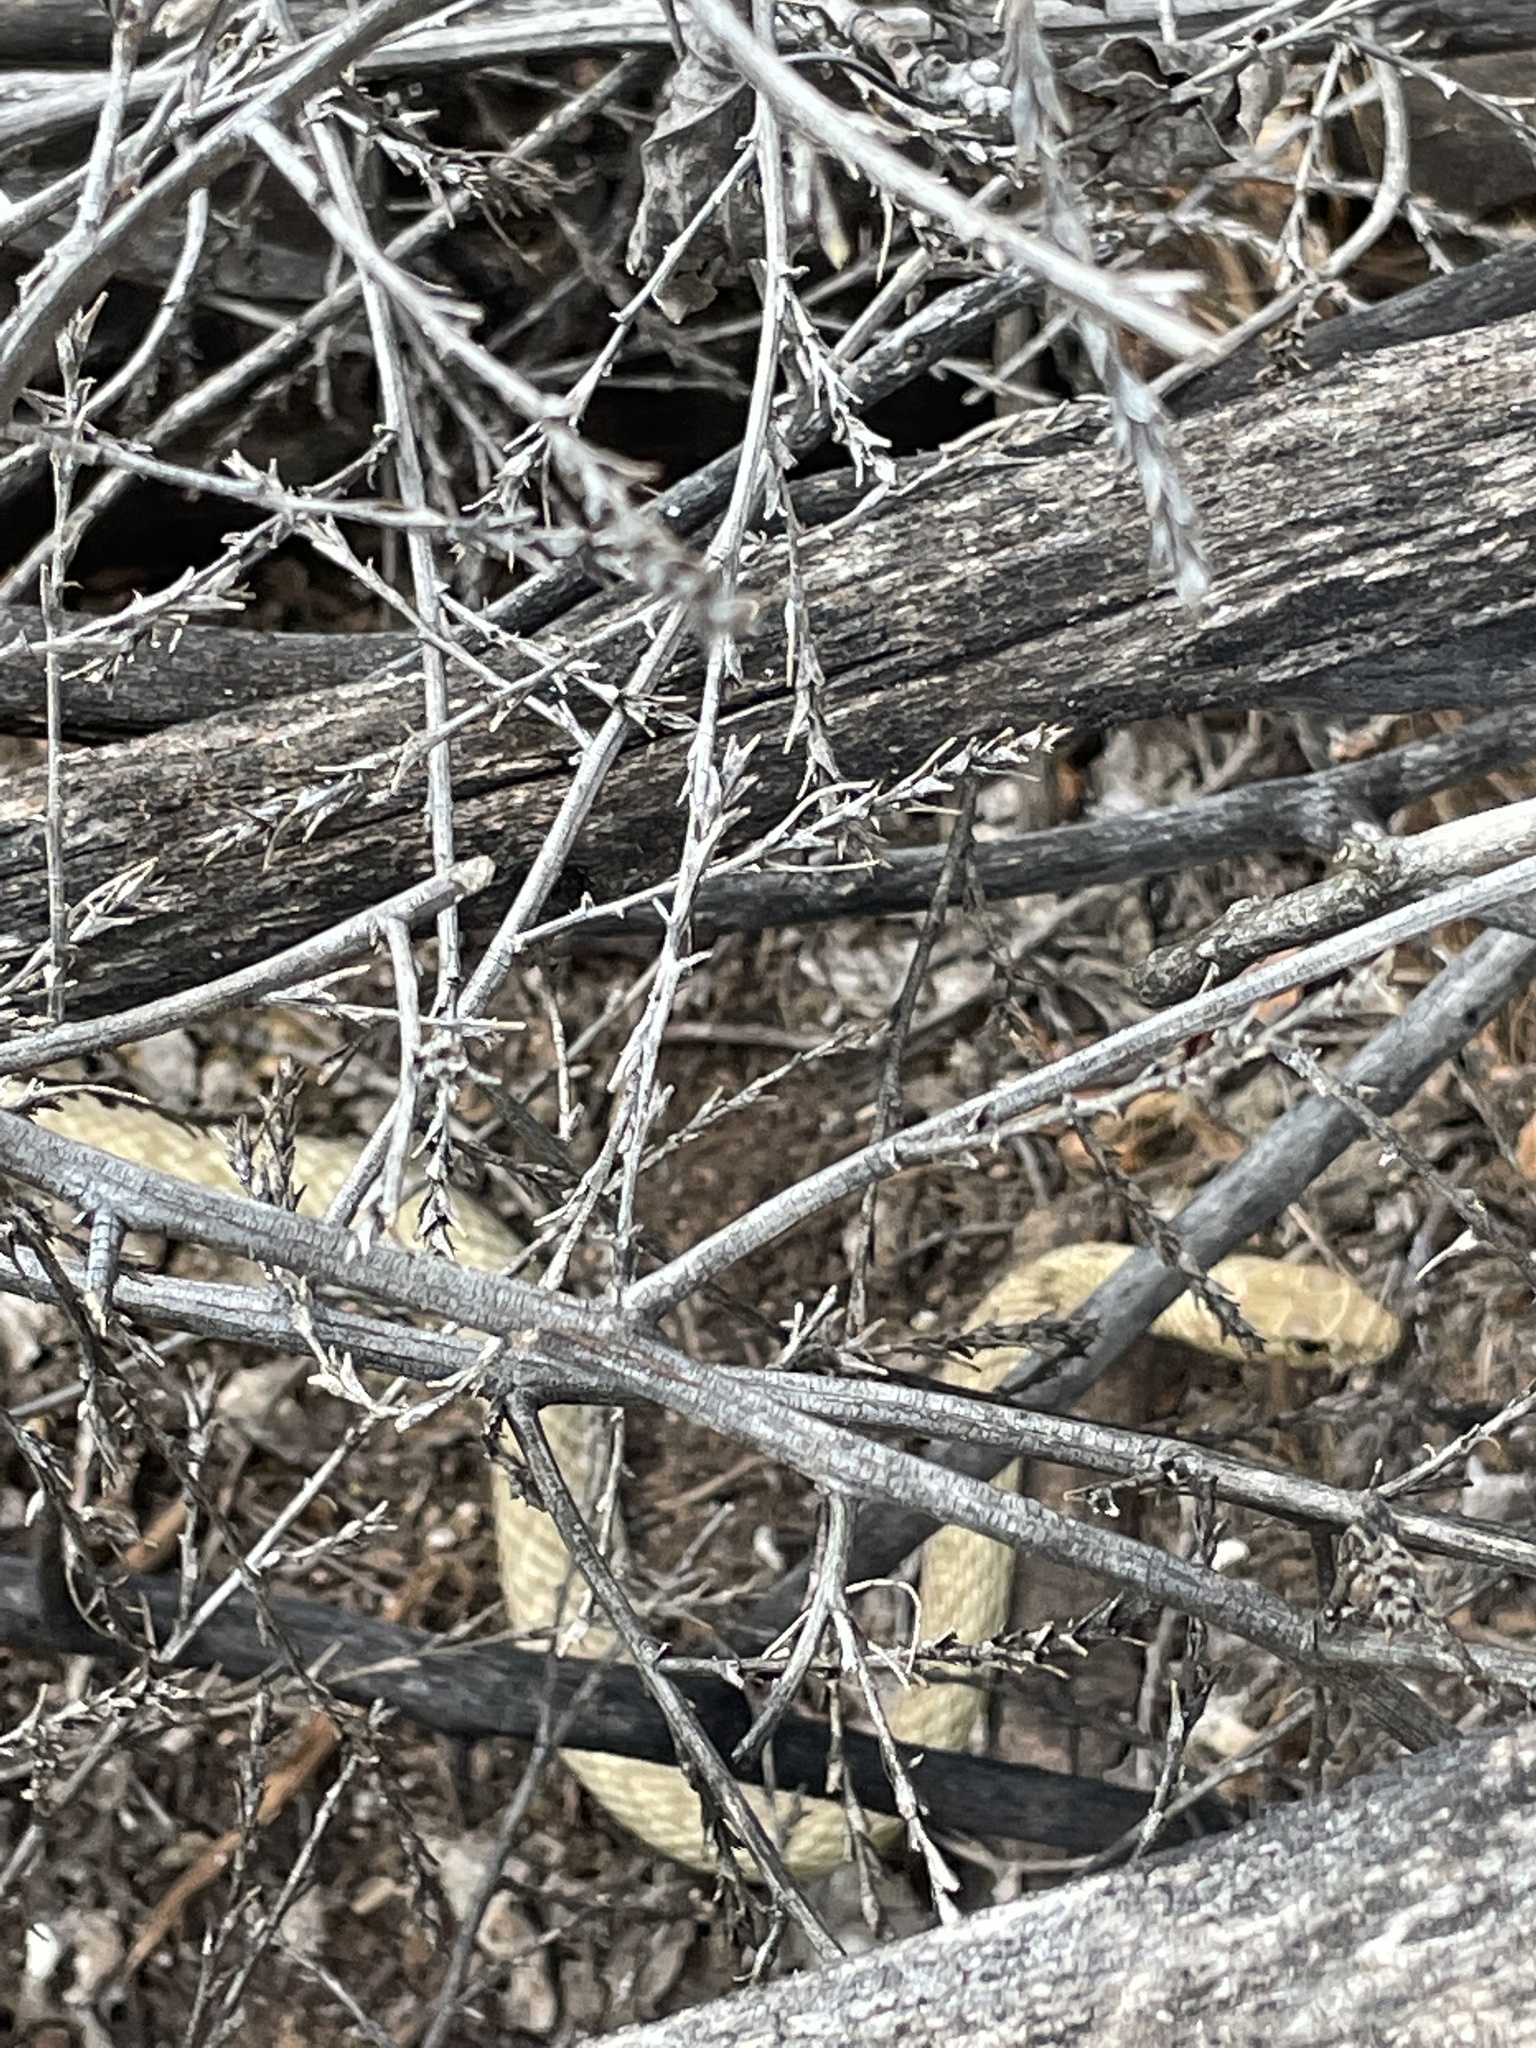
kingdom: Animalia
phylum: Chordata
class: Squamata
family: Colubridae
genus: Masticophis
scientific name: Masticophis flagellum
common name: Coachwhip
